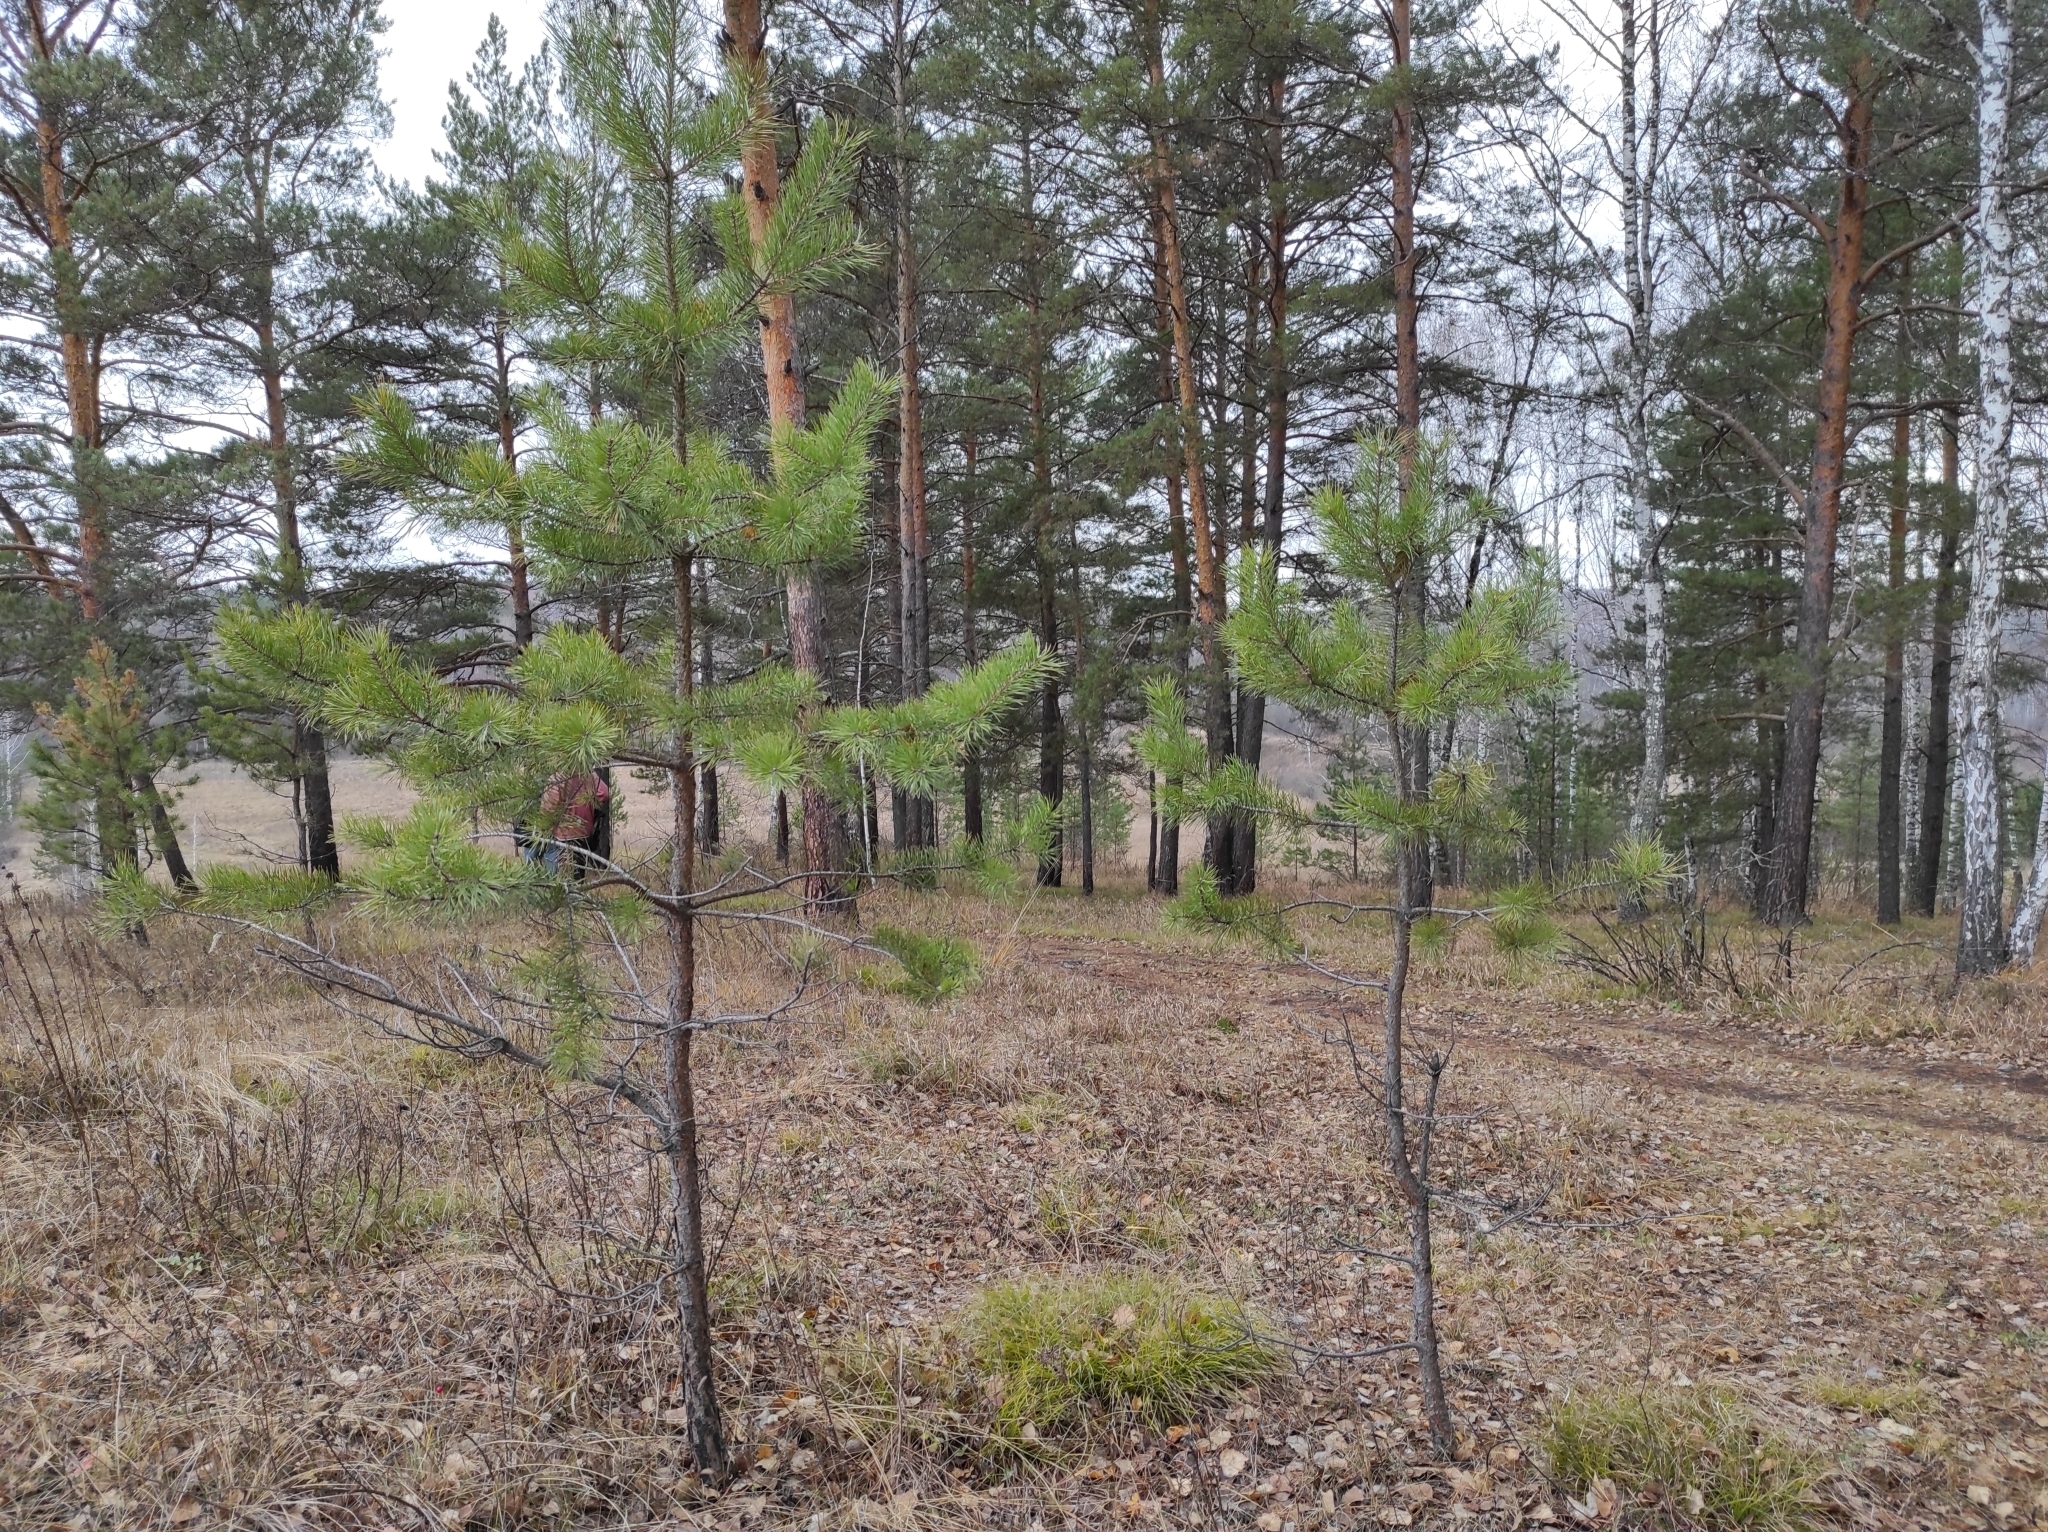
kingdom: Plantae
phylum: Tracheophyta
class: Pinopsida
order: Pinales
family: Pinaceae
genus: Pinus
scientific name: Pinus sylvestris
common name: Scots pine
